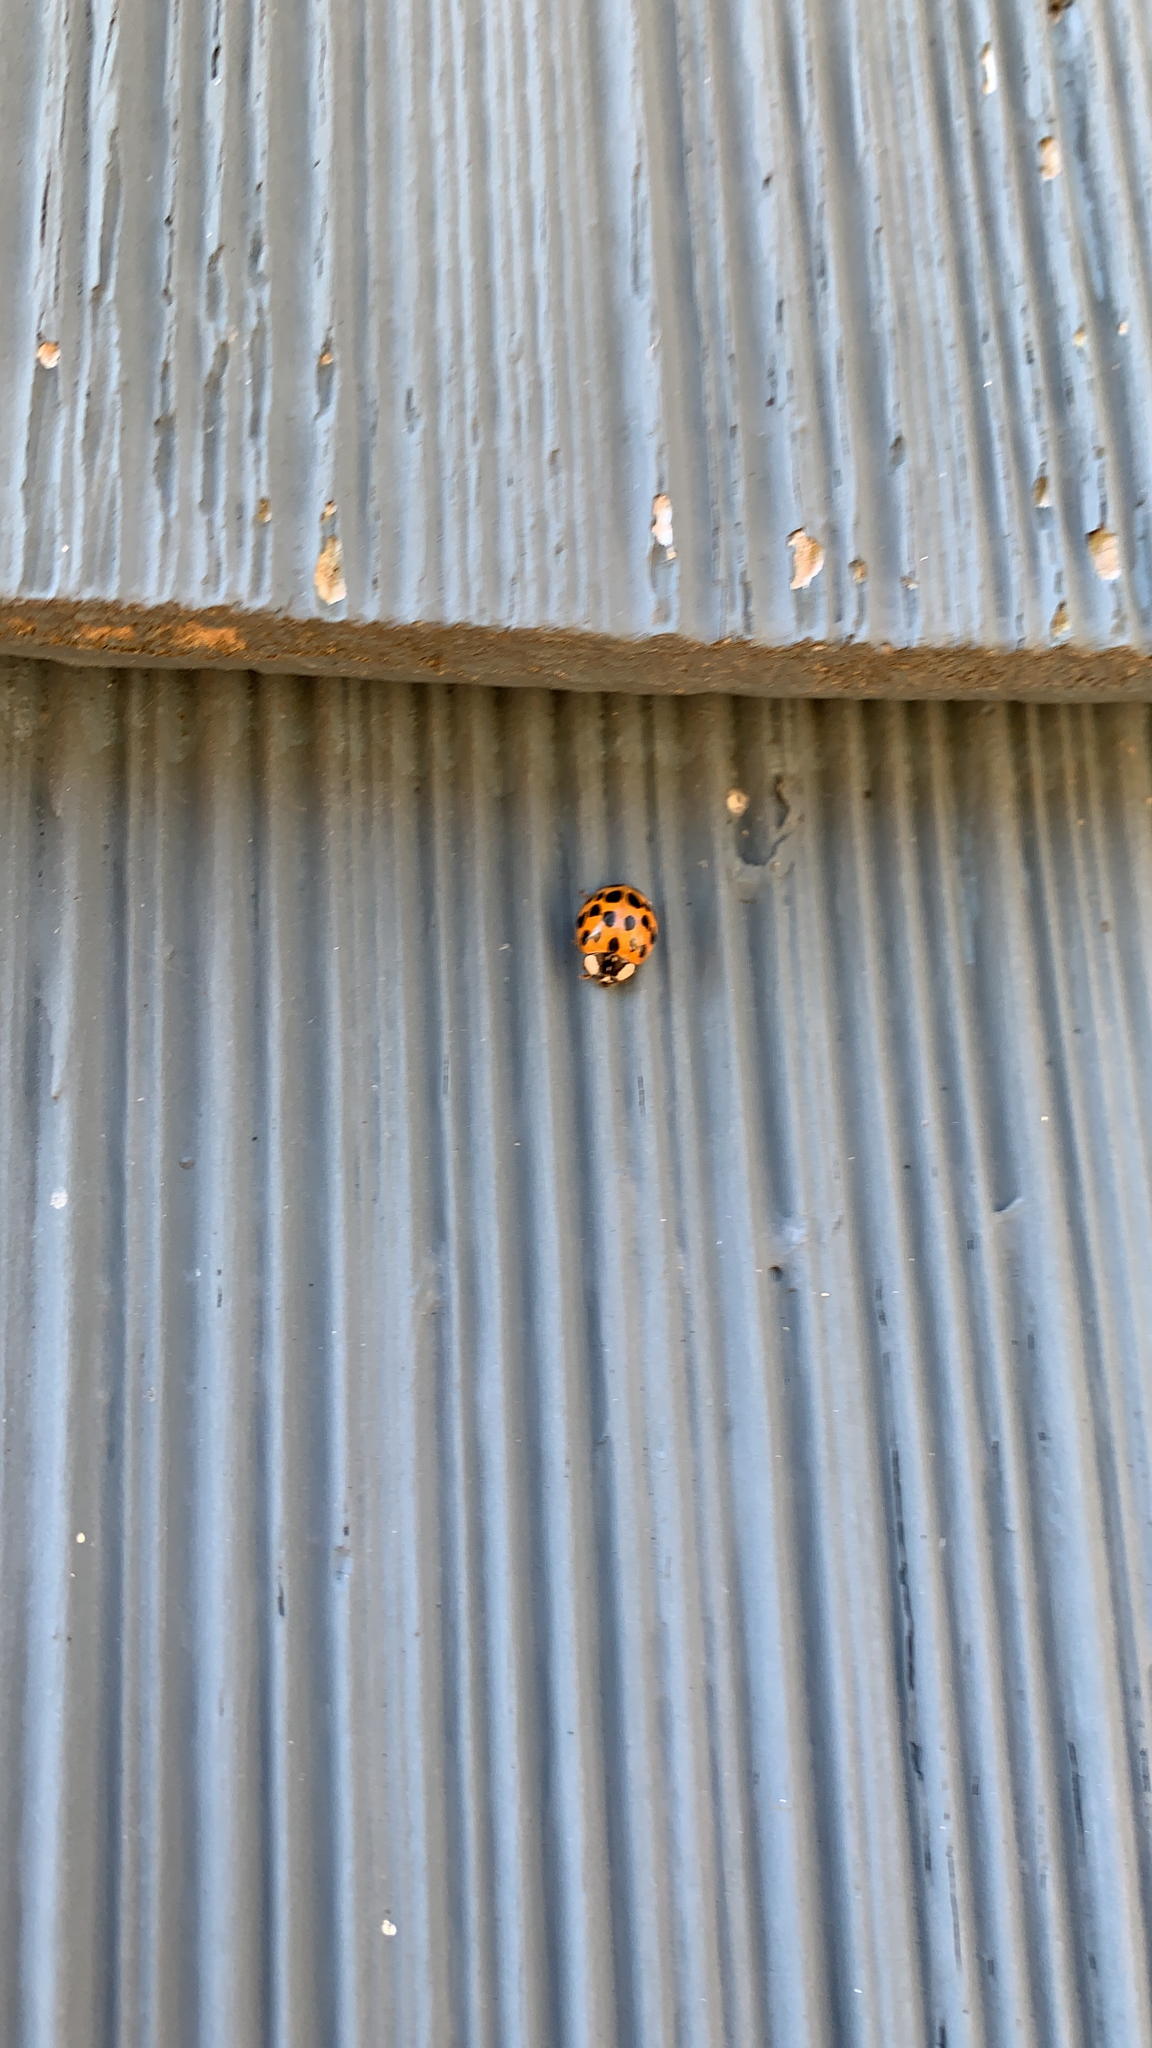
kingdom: Animalia
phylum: Arthropoda
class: Insecta
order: Coleoptera
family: Coccinellidae
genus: Harmonia
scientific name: Harmonia axyridis
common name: Harlequin ladybird
